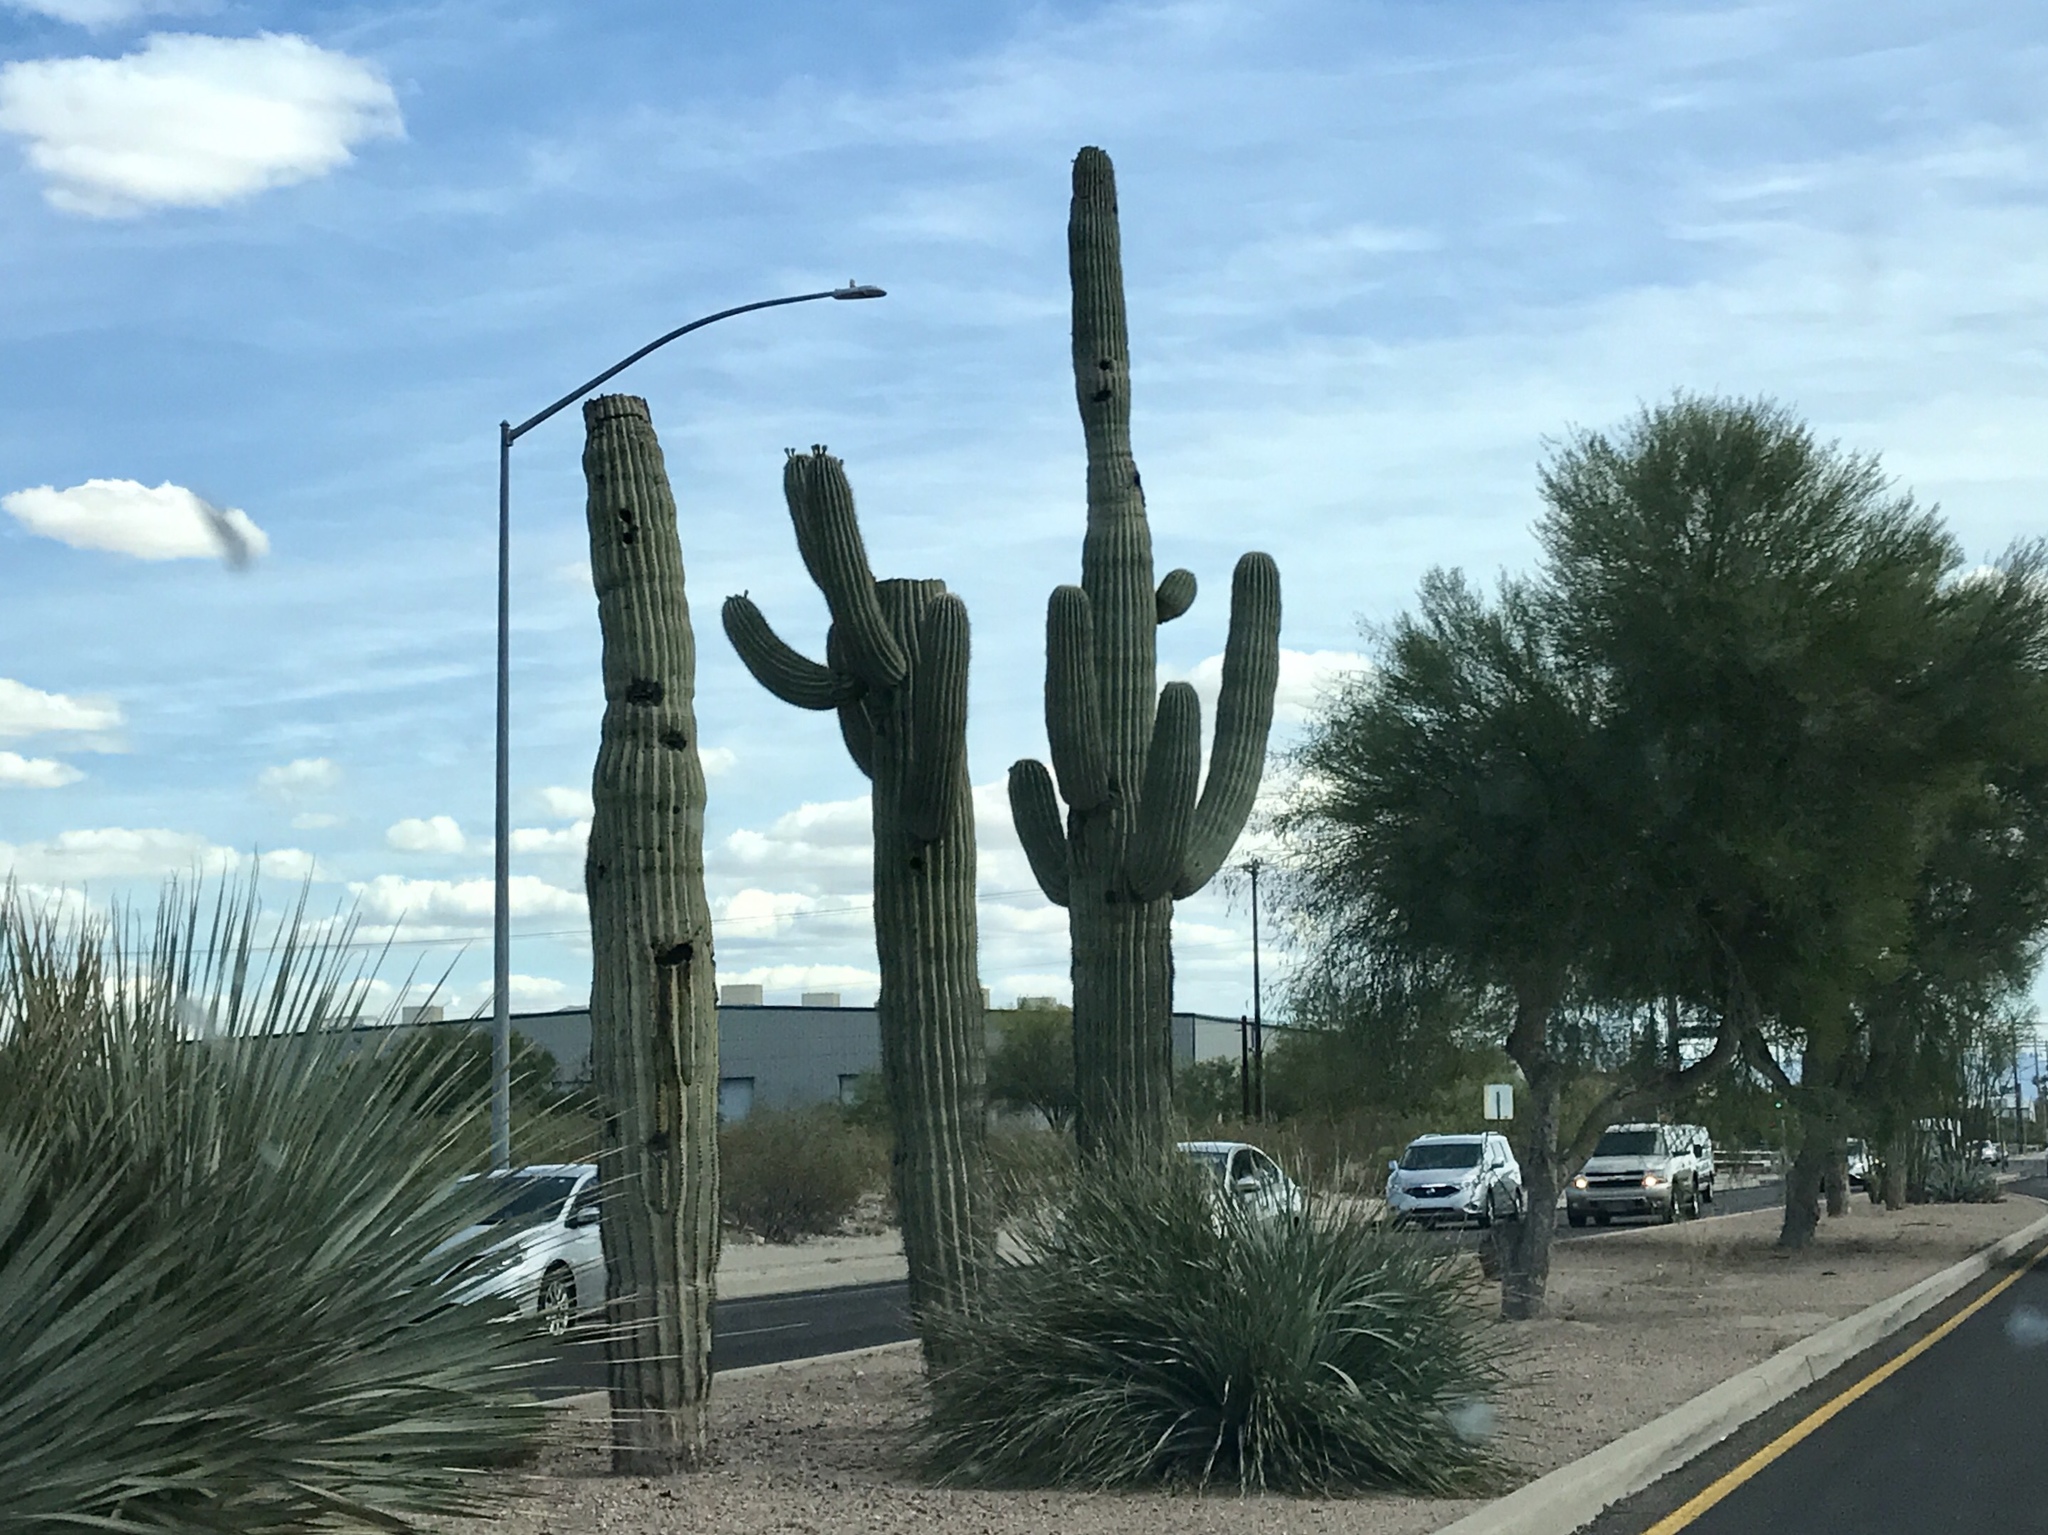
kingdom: Plantae
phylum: Tracheophyta
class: Magnoliopsida
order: Caryophyllales
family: Cactaceae
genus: Carnegiea
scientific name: Carnegiea gigantea
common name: Saguaro
